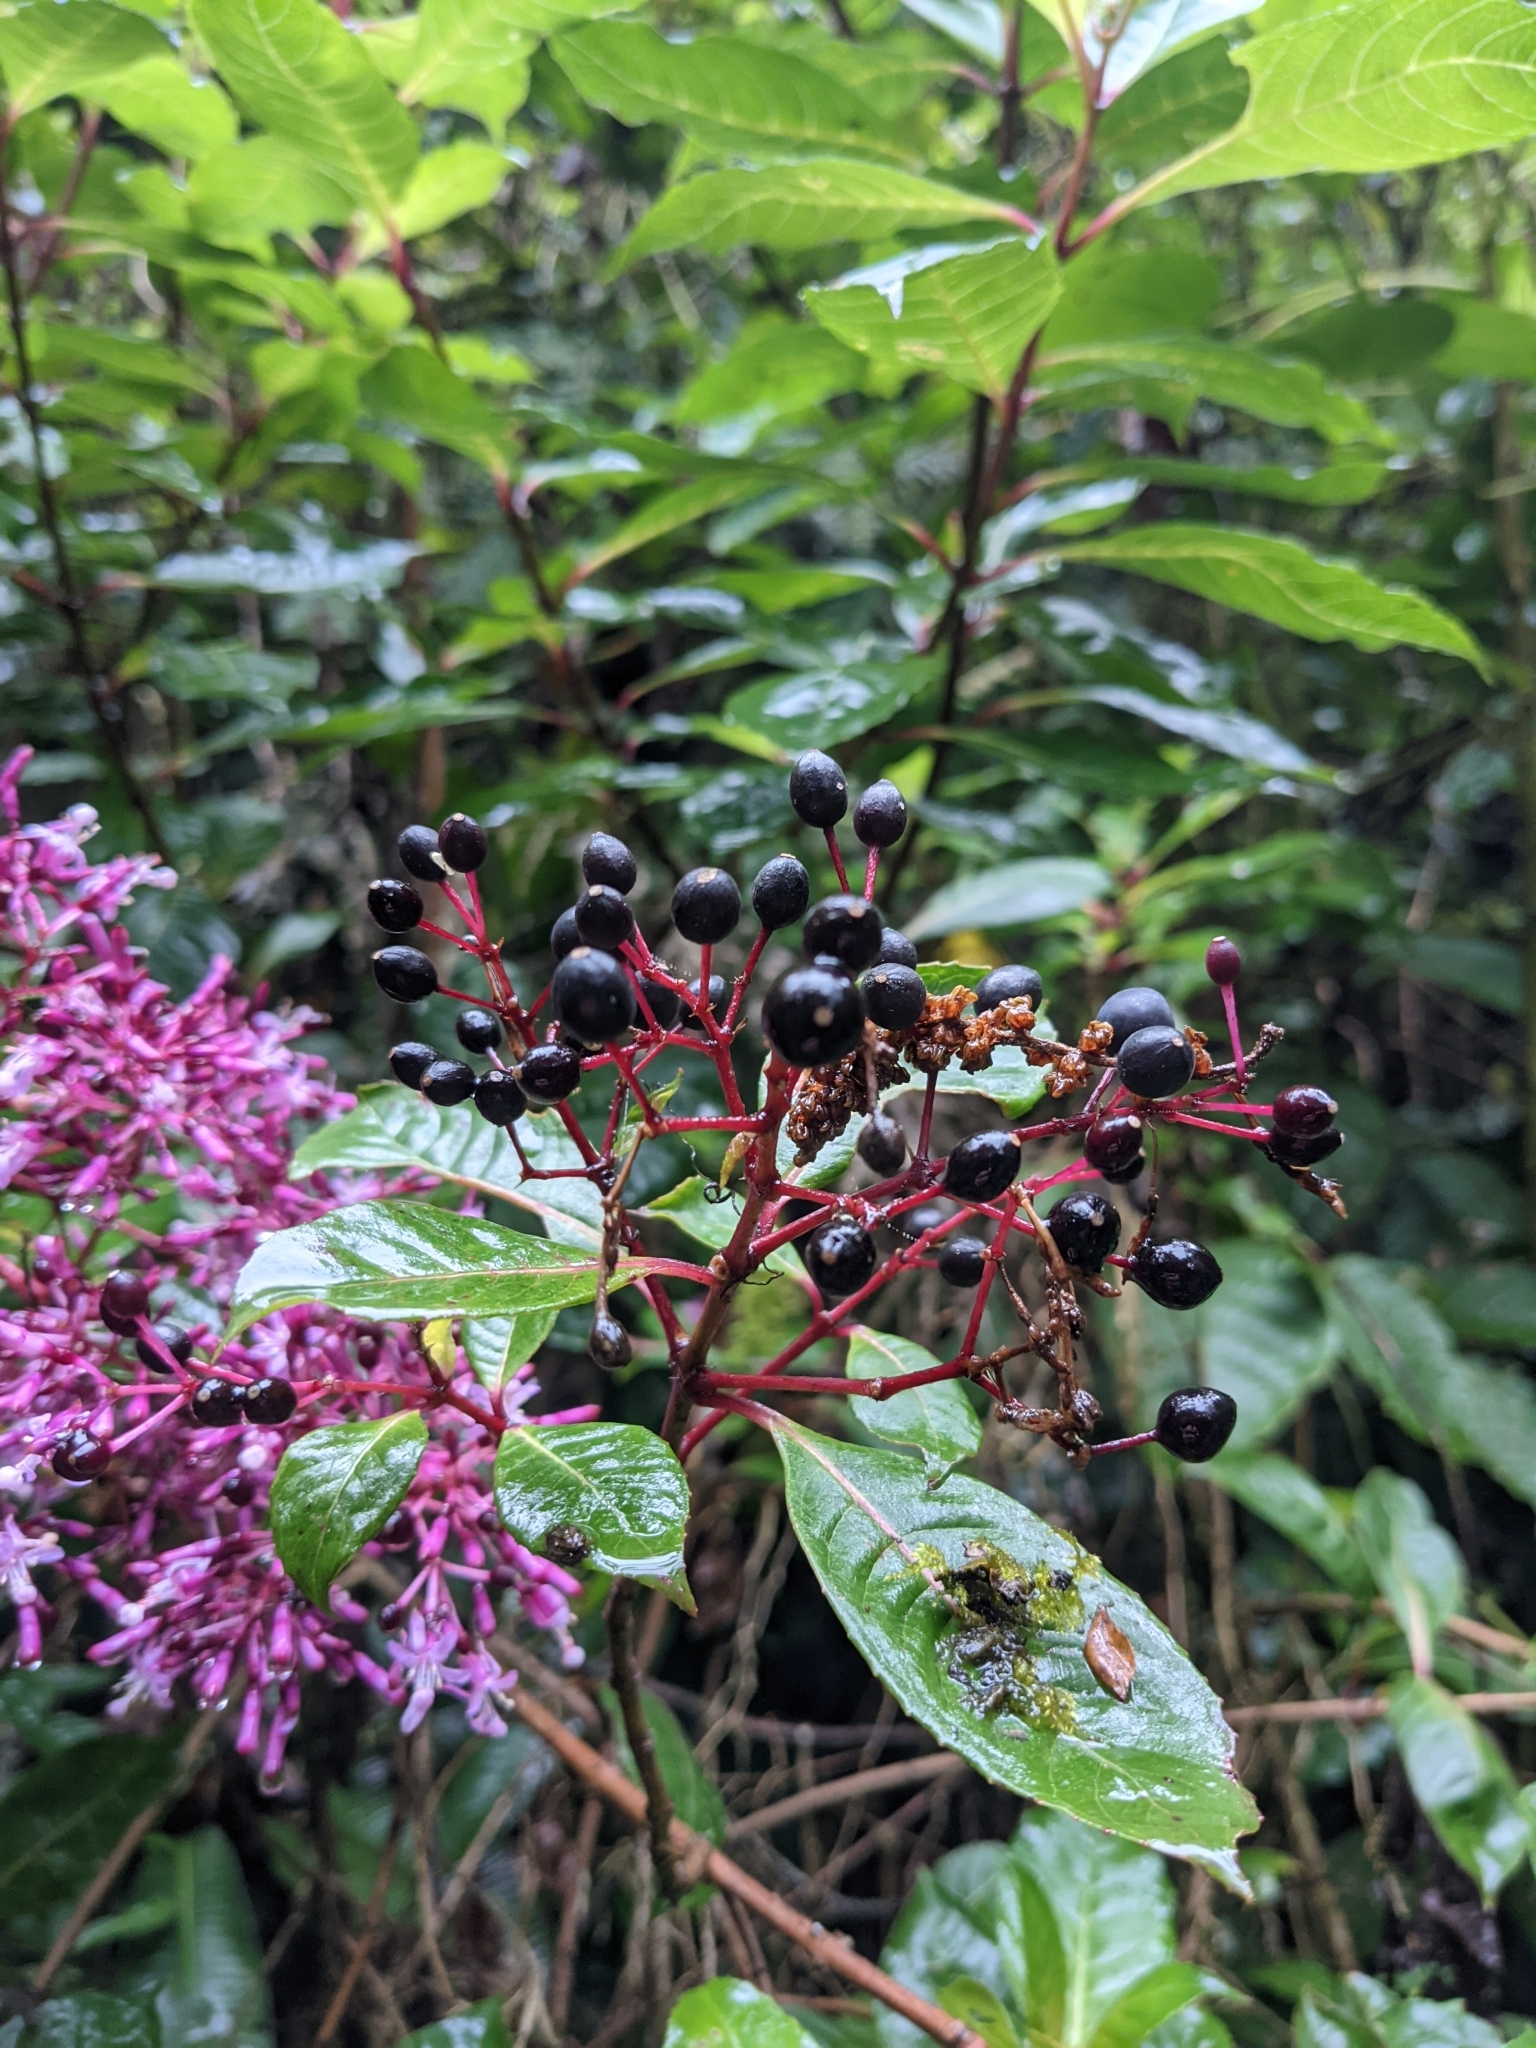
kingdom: Plantae
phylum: Tracheophyta
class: Magnoliopsida
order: Myrtales
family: Onagraceae
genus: Fuchsia
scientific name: Fuchsia paniculata
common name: Shrubby fuchsia
